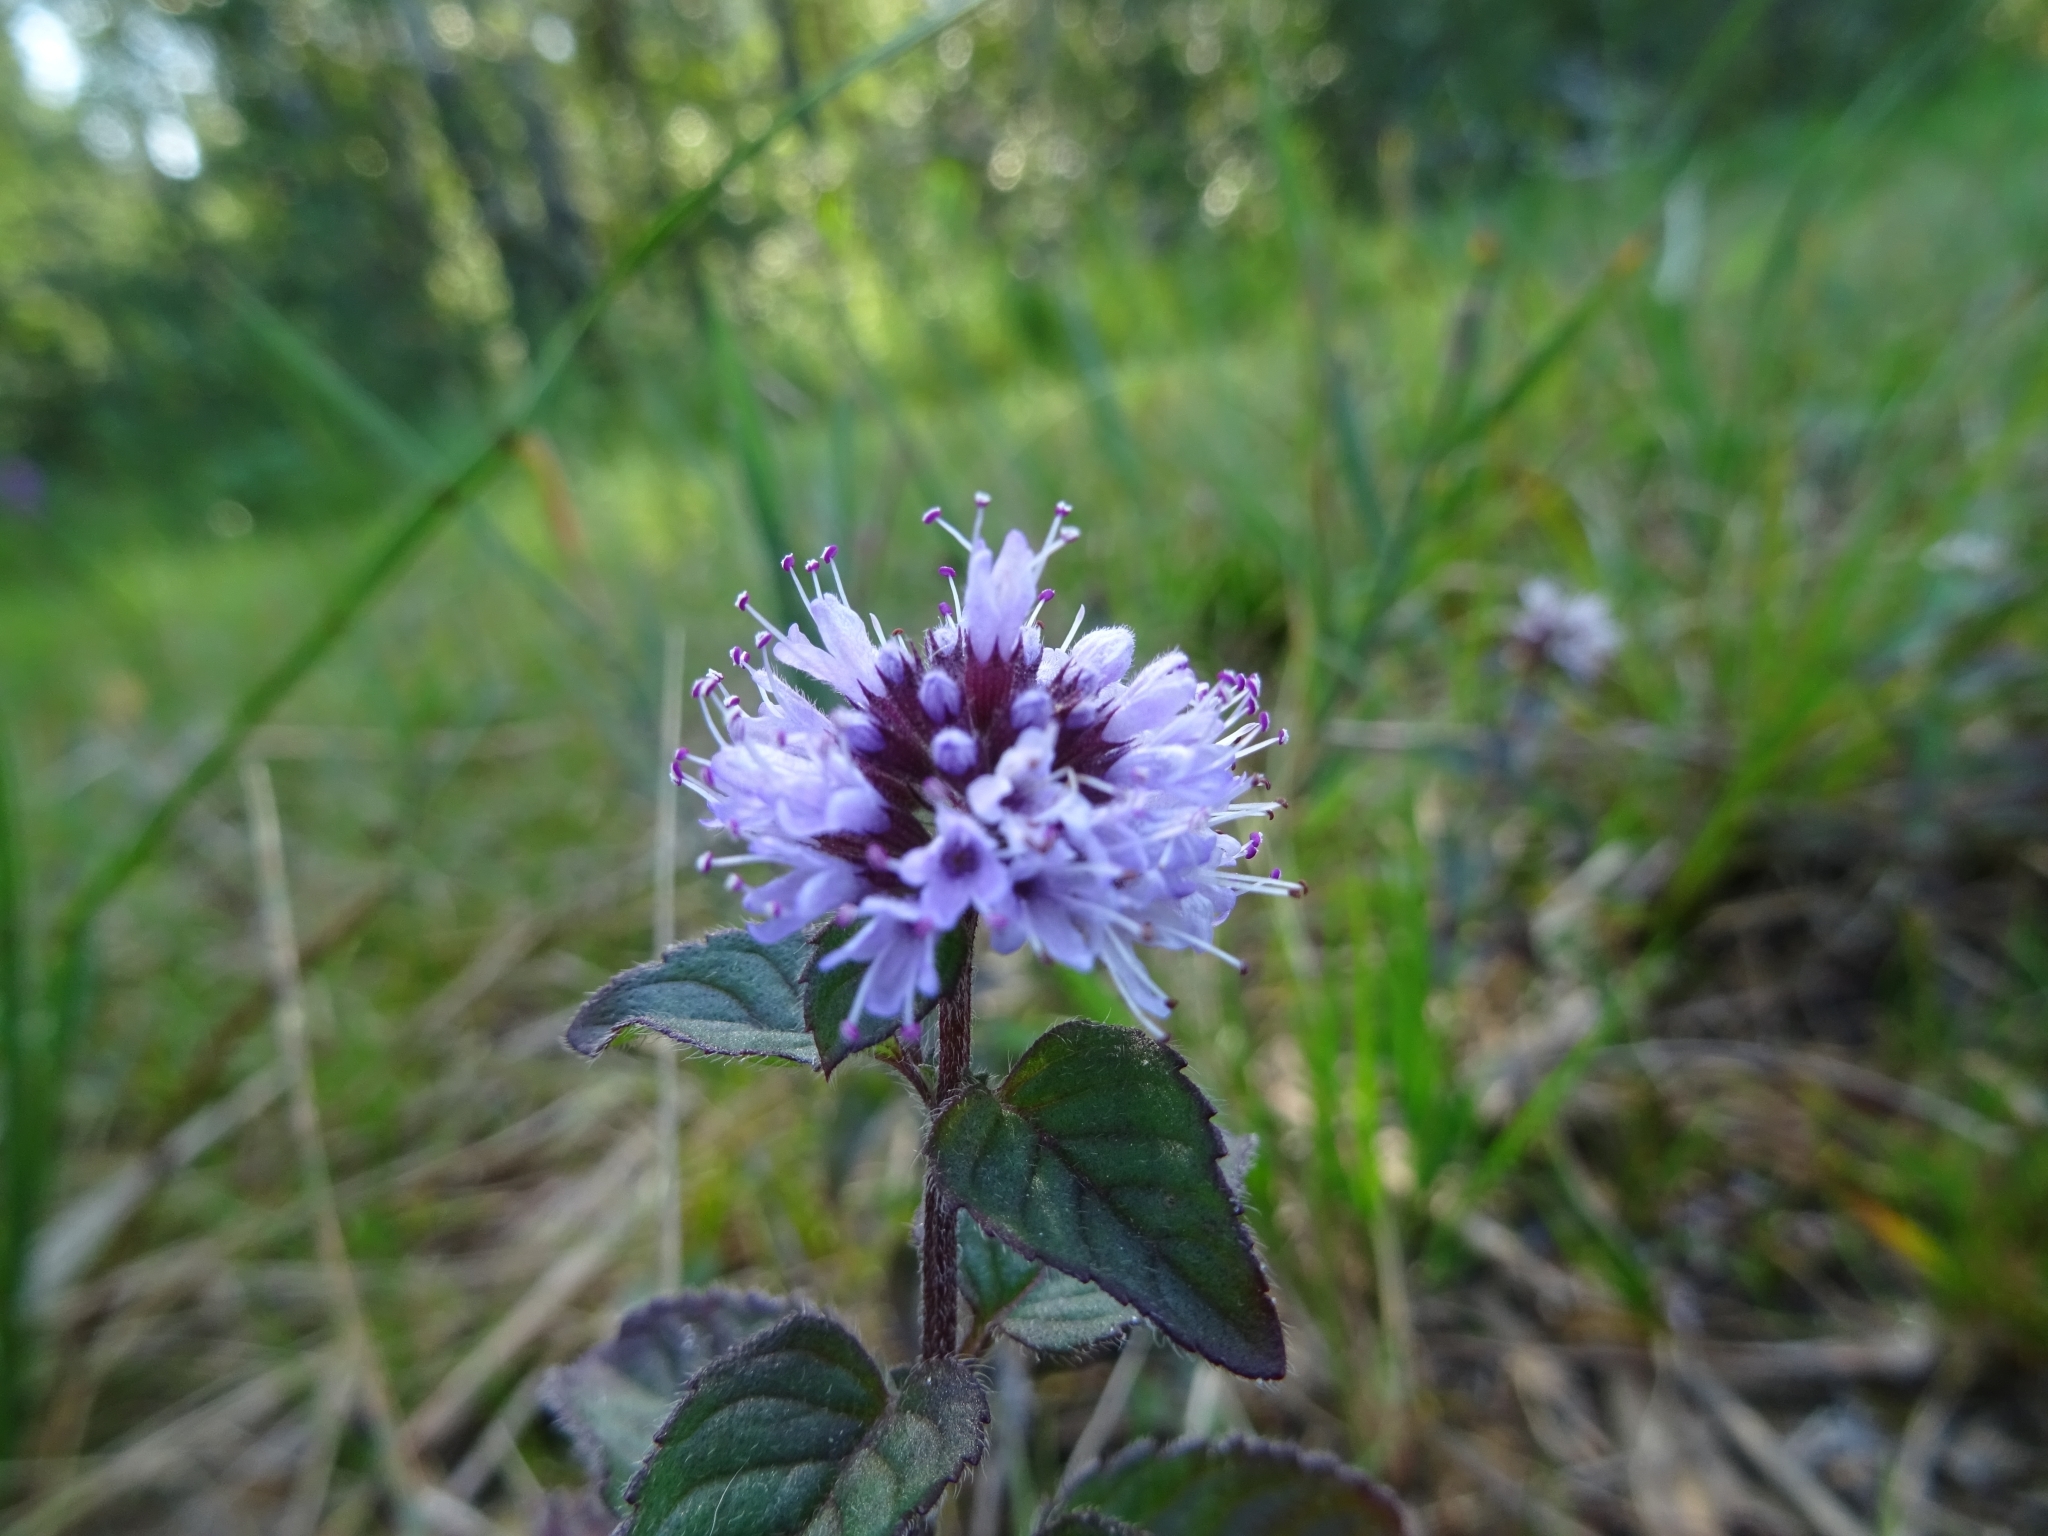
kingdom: Plantae
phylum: Tracheophyta
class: Magnoliopsida
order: Lamiales
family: Lamiaceae
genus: Mentha
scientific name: Mentha aquatica
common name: Water mint
